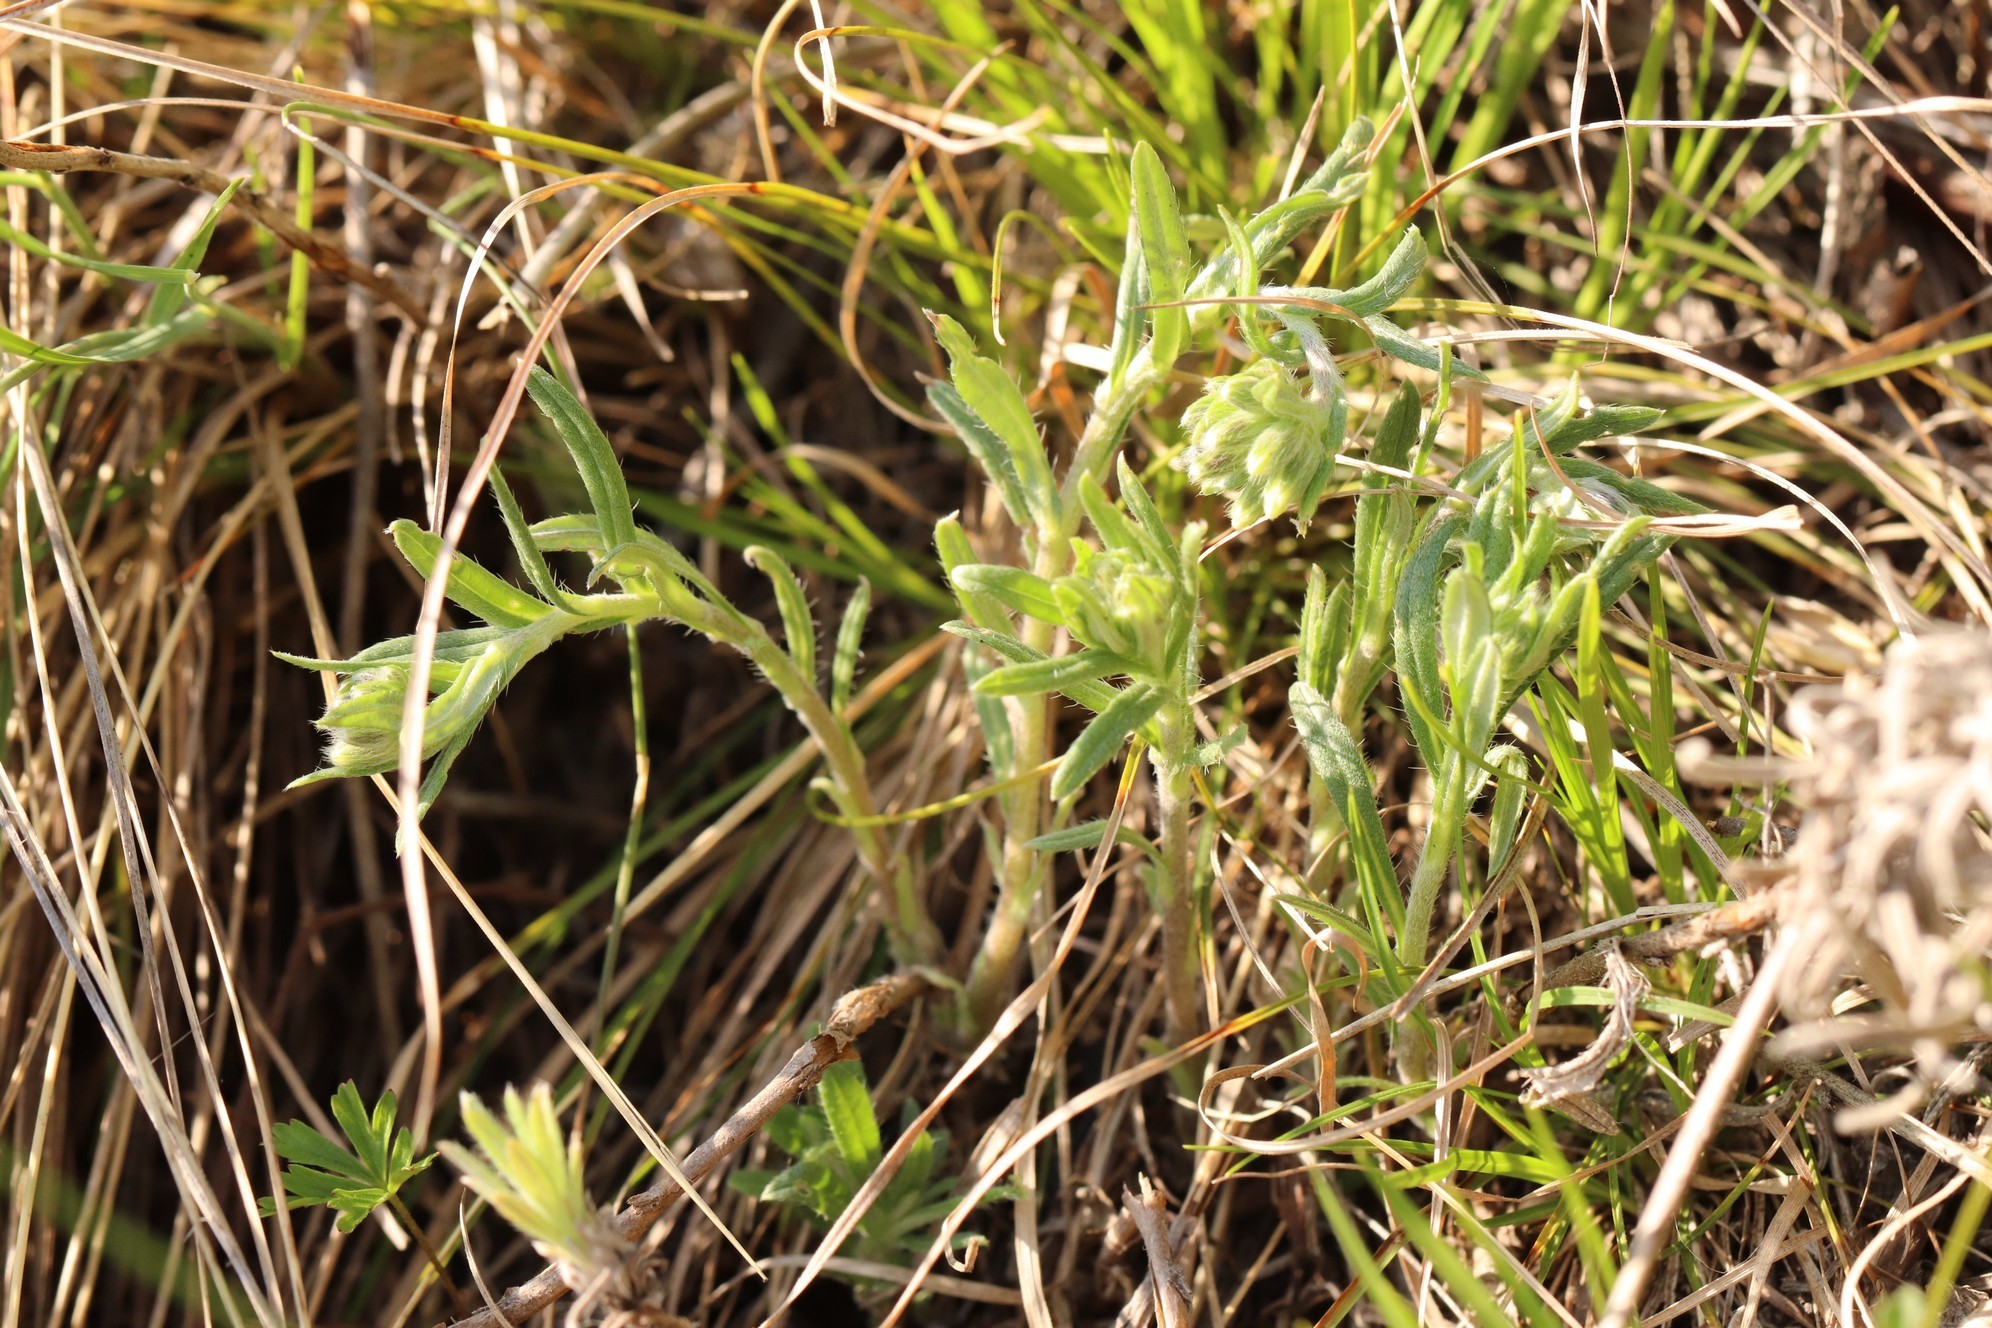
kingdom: Plantae
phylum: Tracheophyta
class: Magnoliopsida
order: Boraginales
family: Boraginaceae
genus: Onosma
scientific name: Onosma simplicissima
